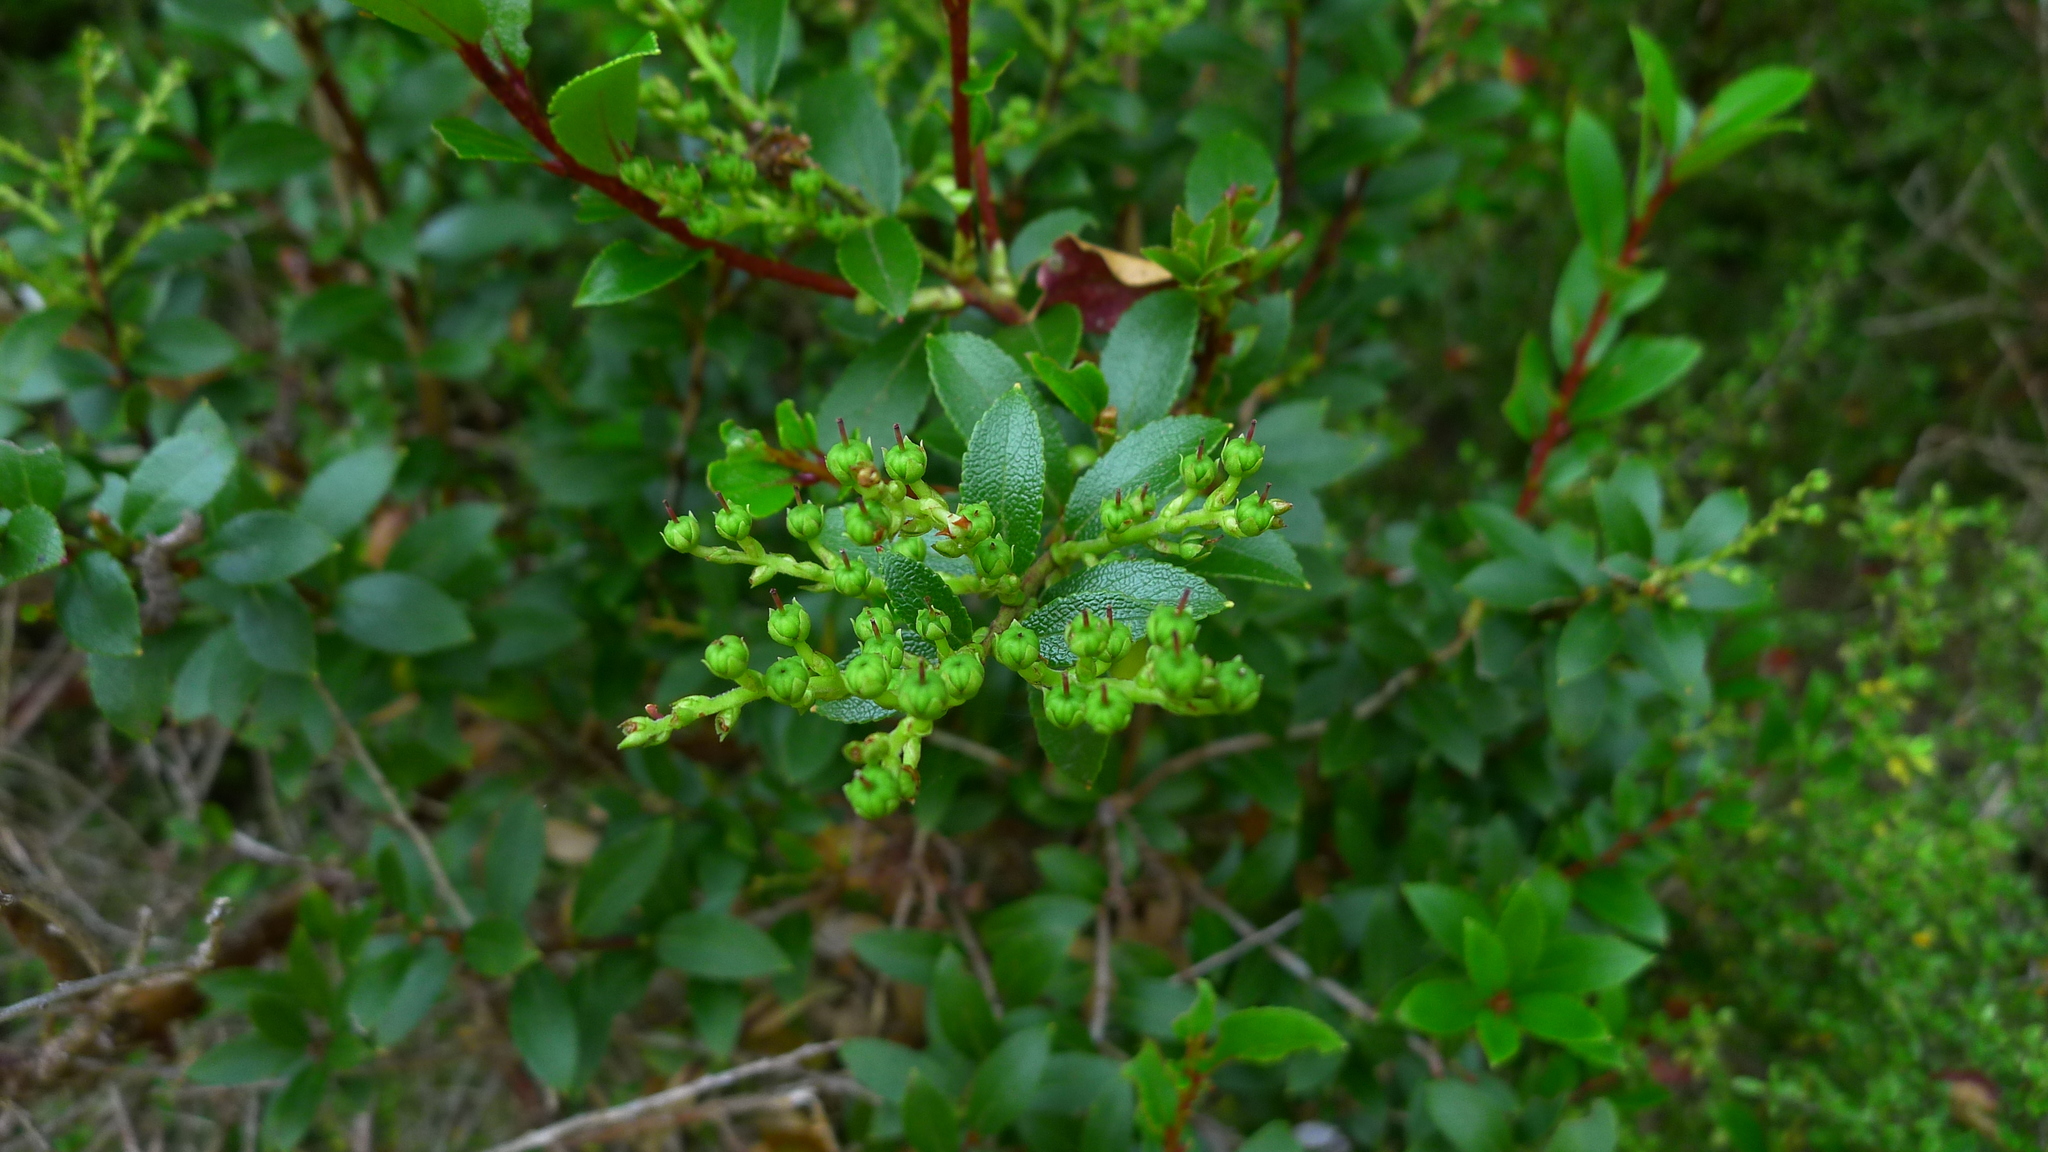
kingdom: Plantae
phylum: Tracheophyta
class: Magnoliopsida
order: Ericales
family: Ericaceae
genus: Gaultheria
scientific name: Gaultheria rupestris
